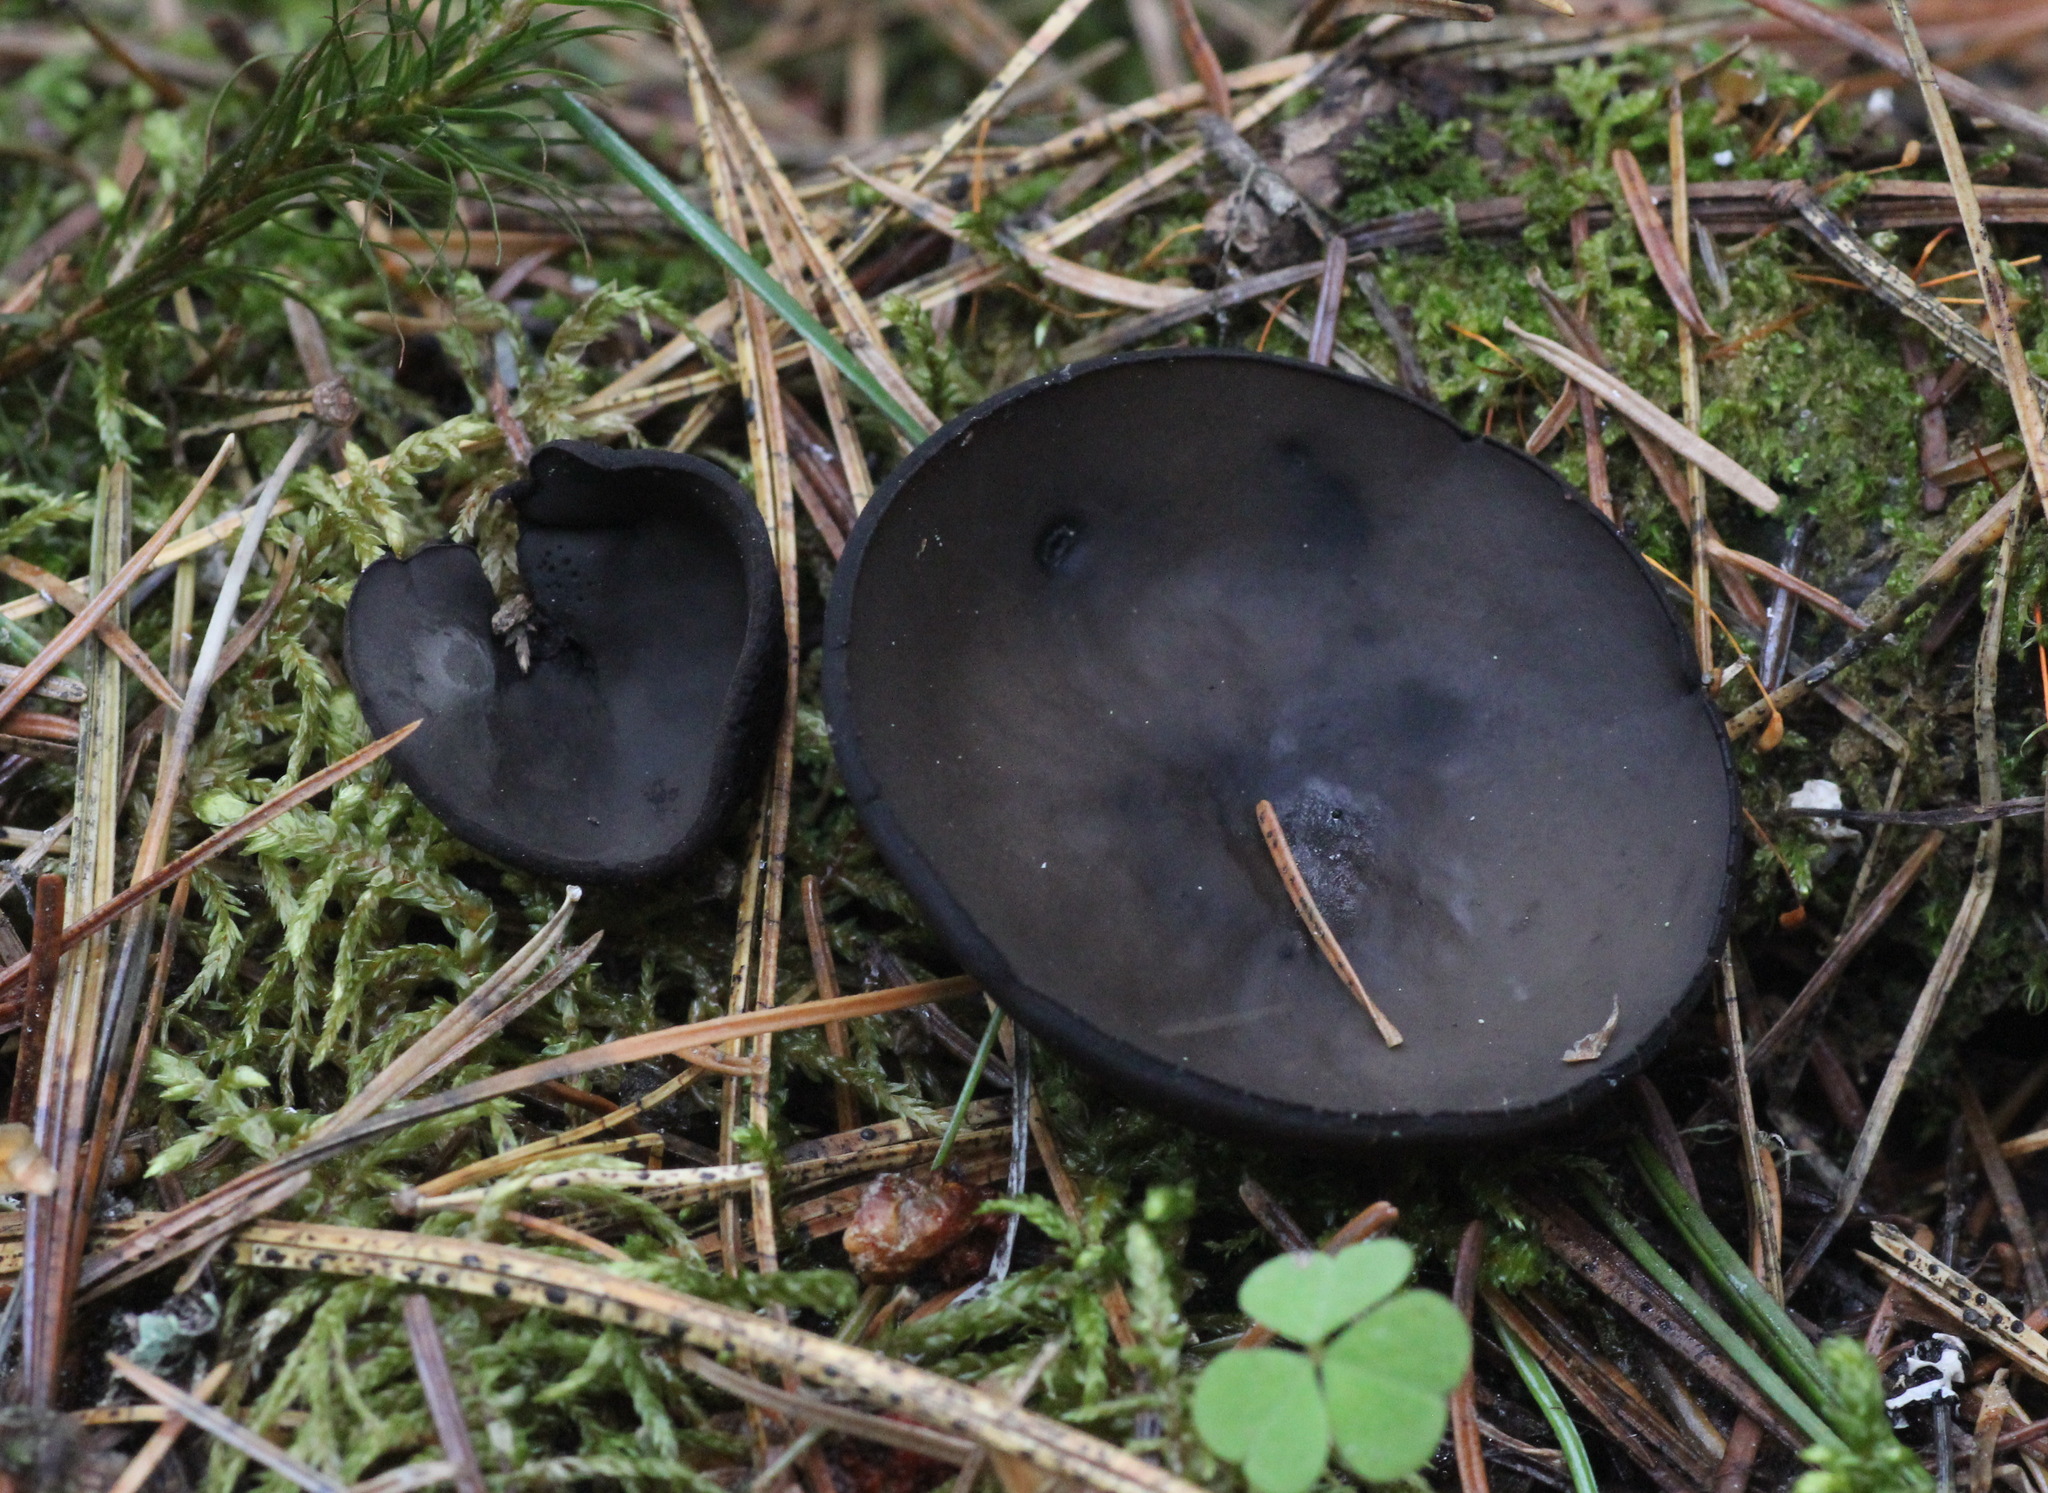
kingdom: Fungi
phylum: Ascomycota
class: Pezizomycetes
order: Pezizales
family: Sarcosomataceae
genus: Pseudoplectania
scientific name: Pseudoplectania melaena
